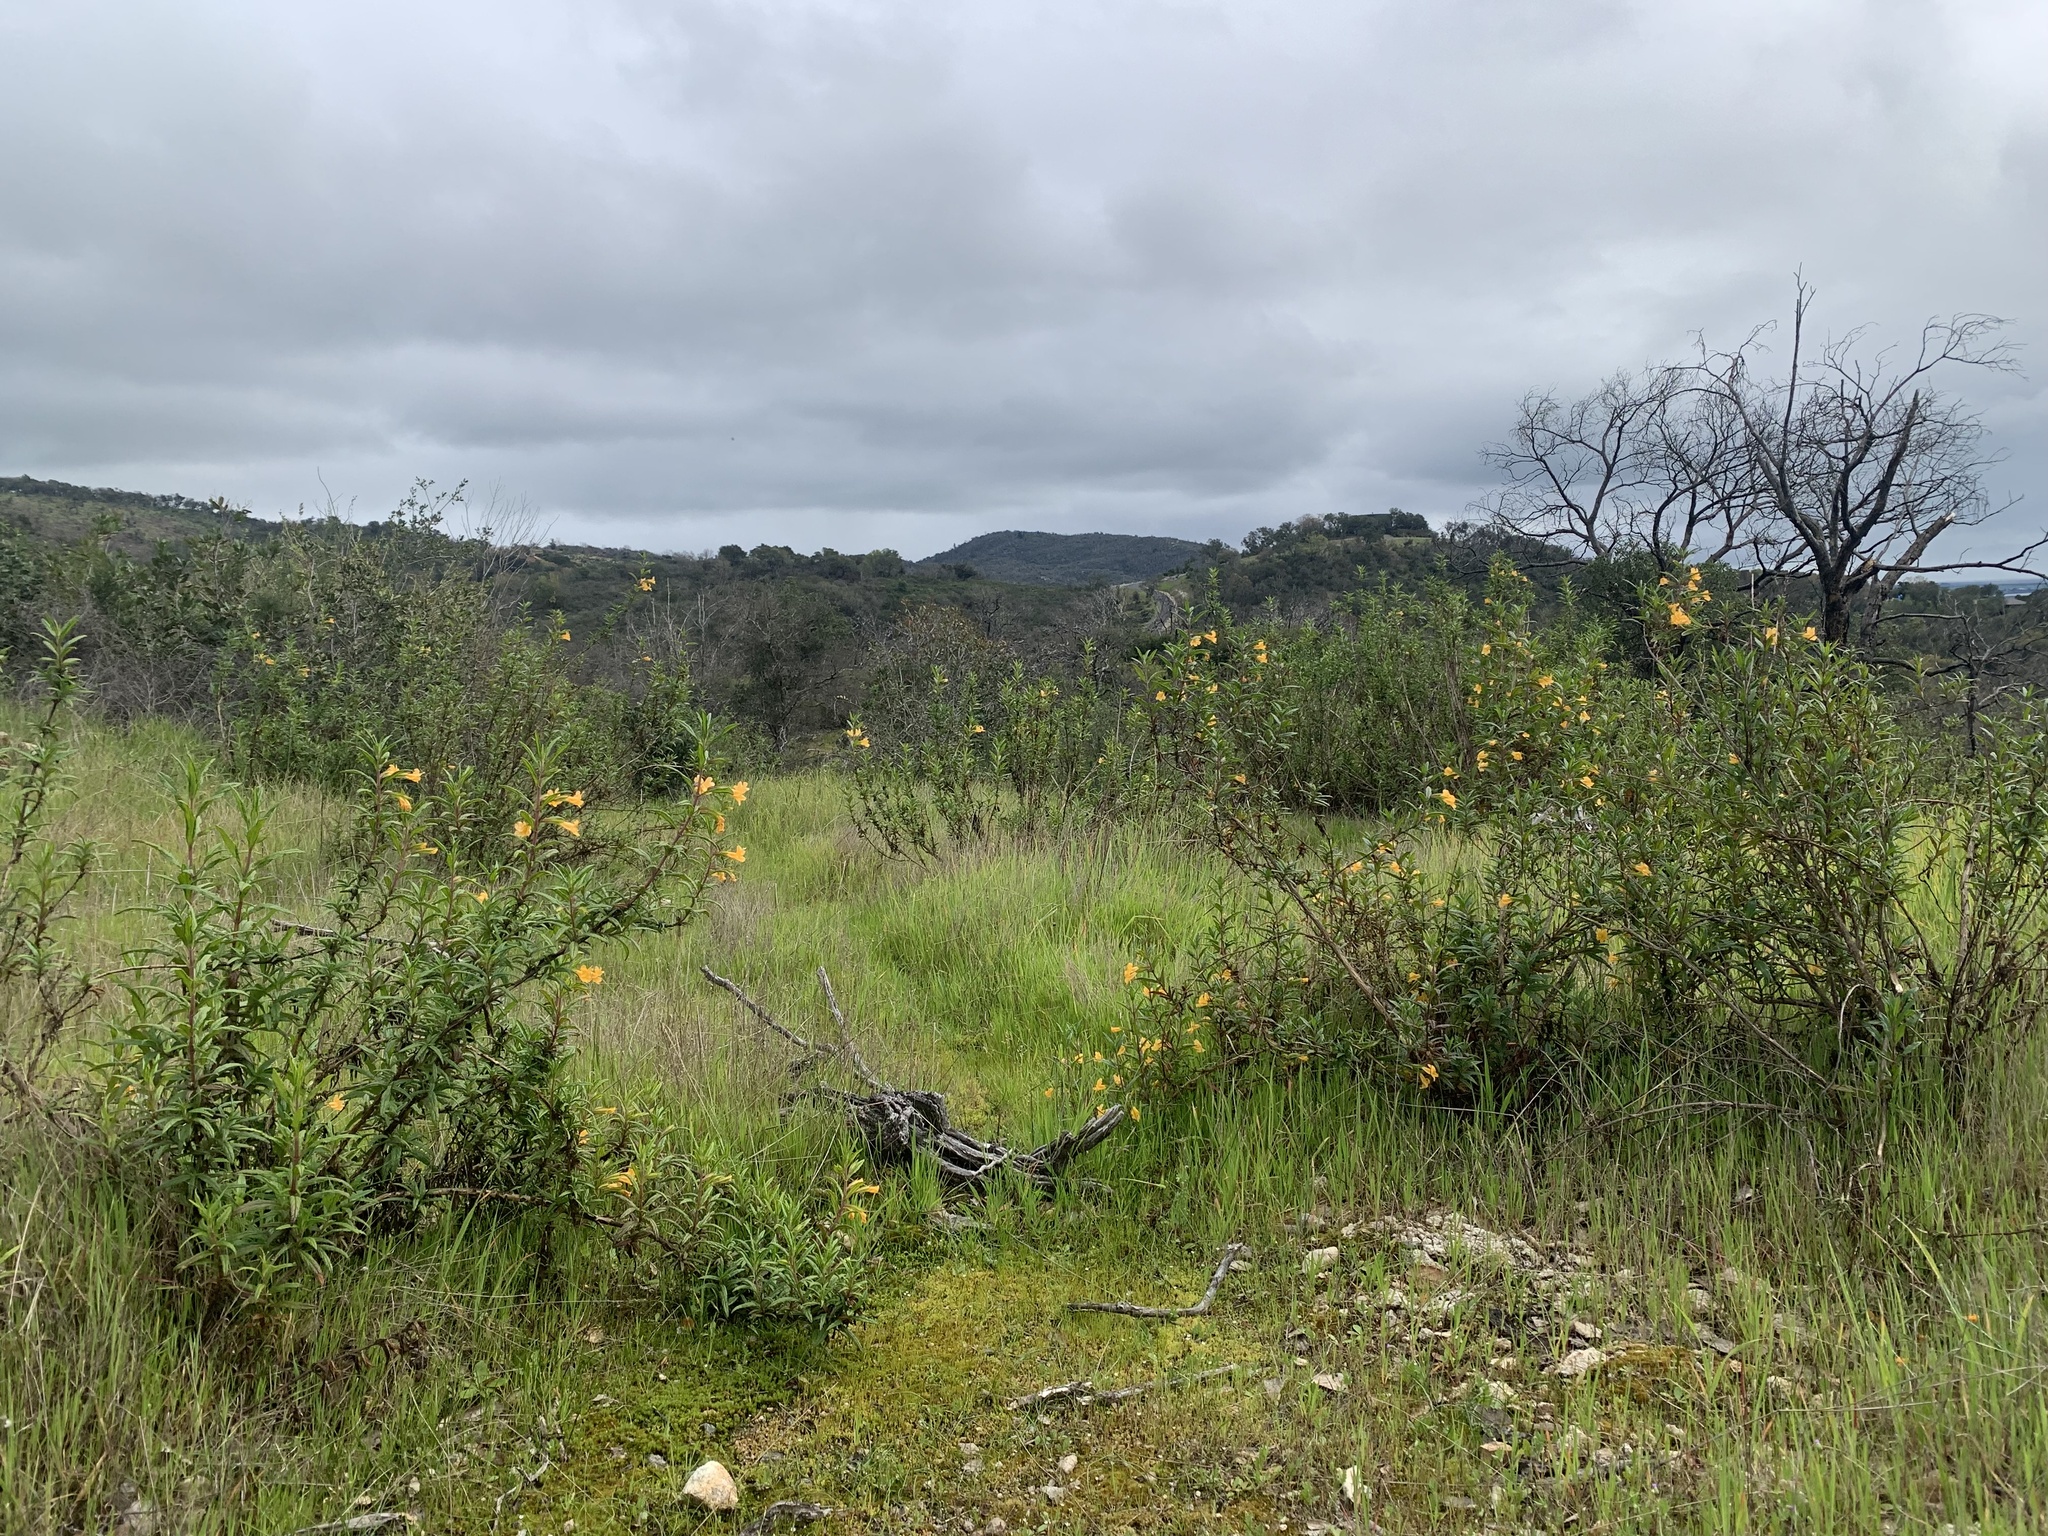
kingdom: Plantae
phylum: Tracheophyta
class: Magnoliopsida
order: Lamiales
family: Phrymaceae
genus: Diplacus
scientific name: Diplacus aurantiacus
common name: Bush monkey-flower
